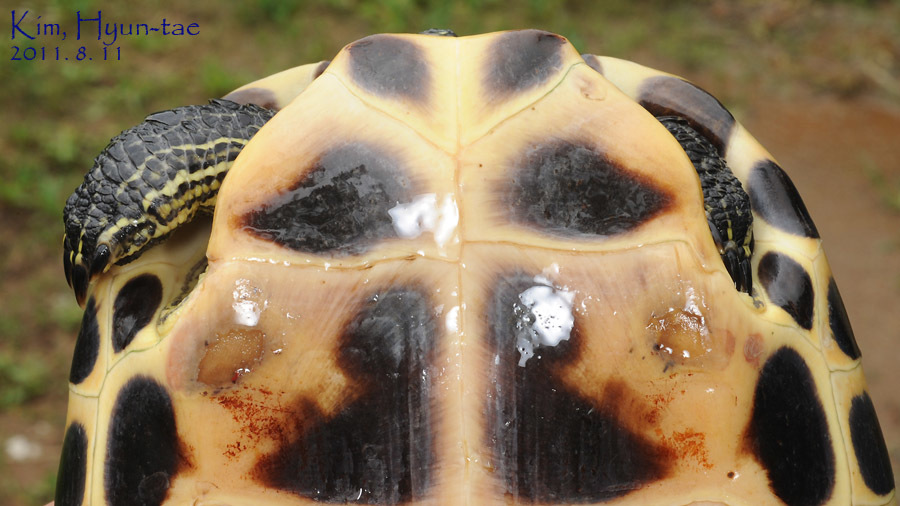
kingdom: Animalia
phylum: Chordata
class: Testudines
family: Geoemydidae
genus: Mauremys
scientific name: Mauremys sinensis
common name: Chinese stripe-necked turtle
